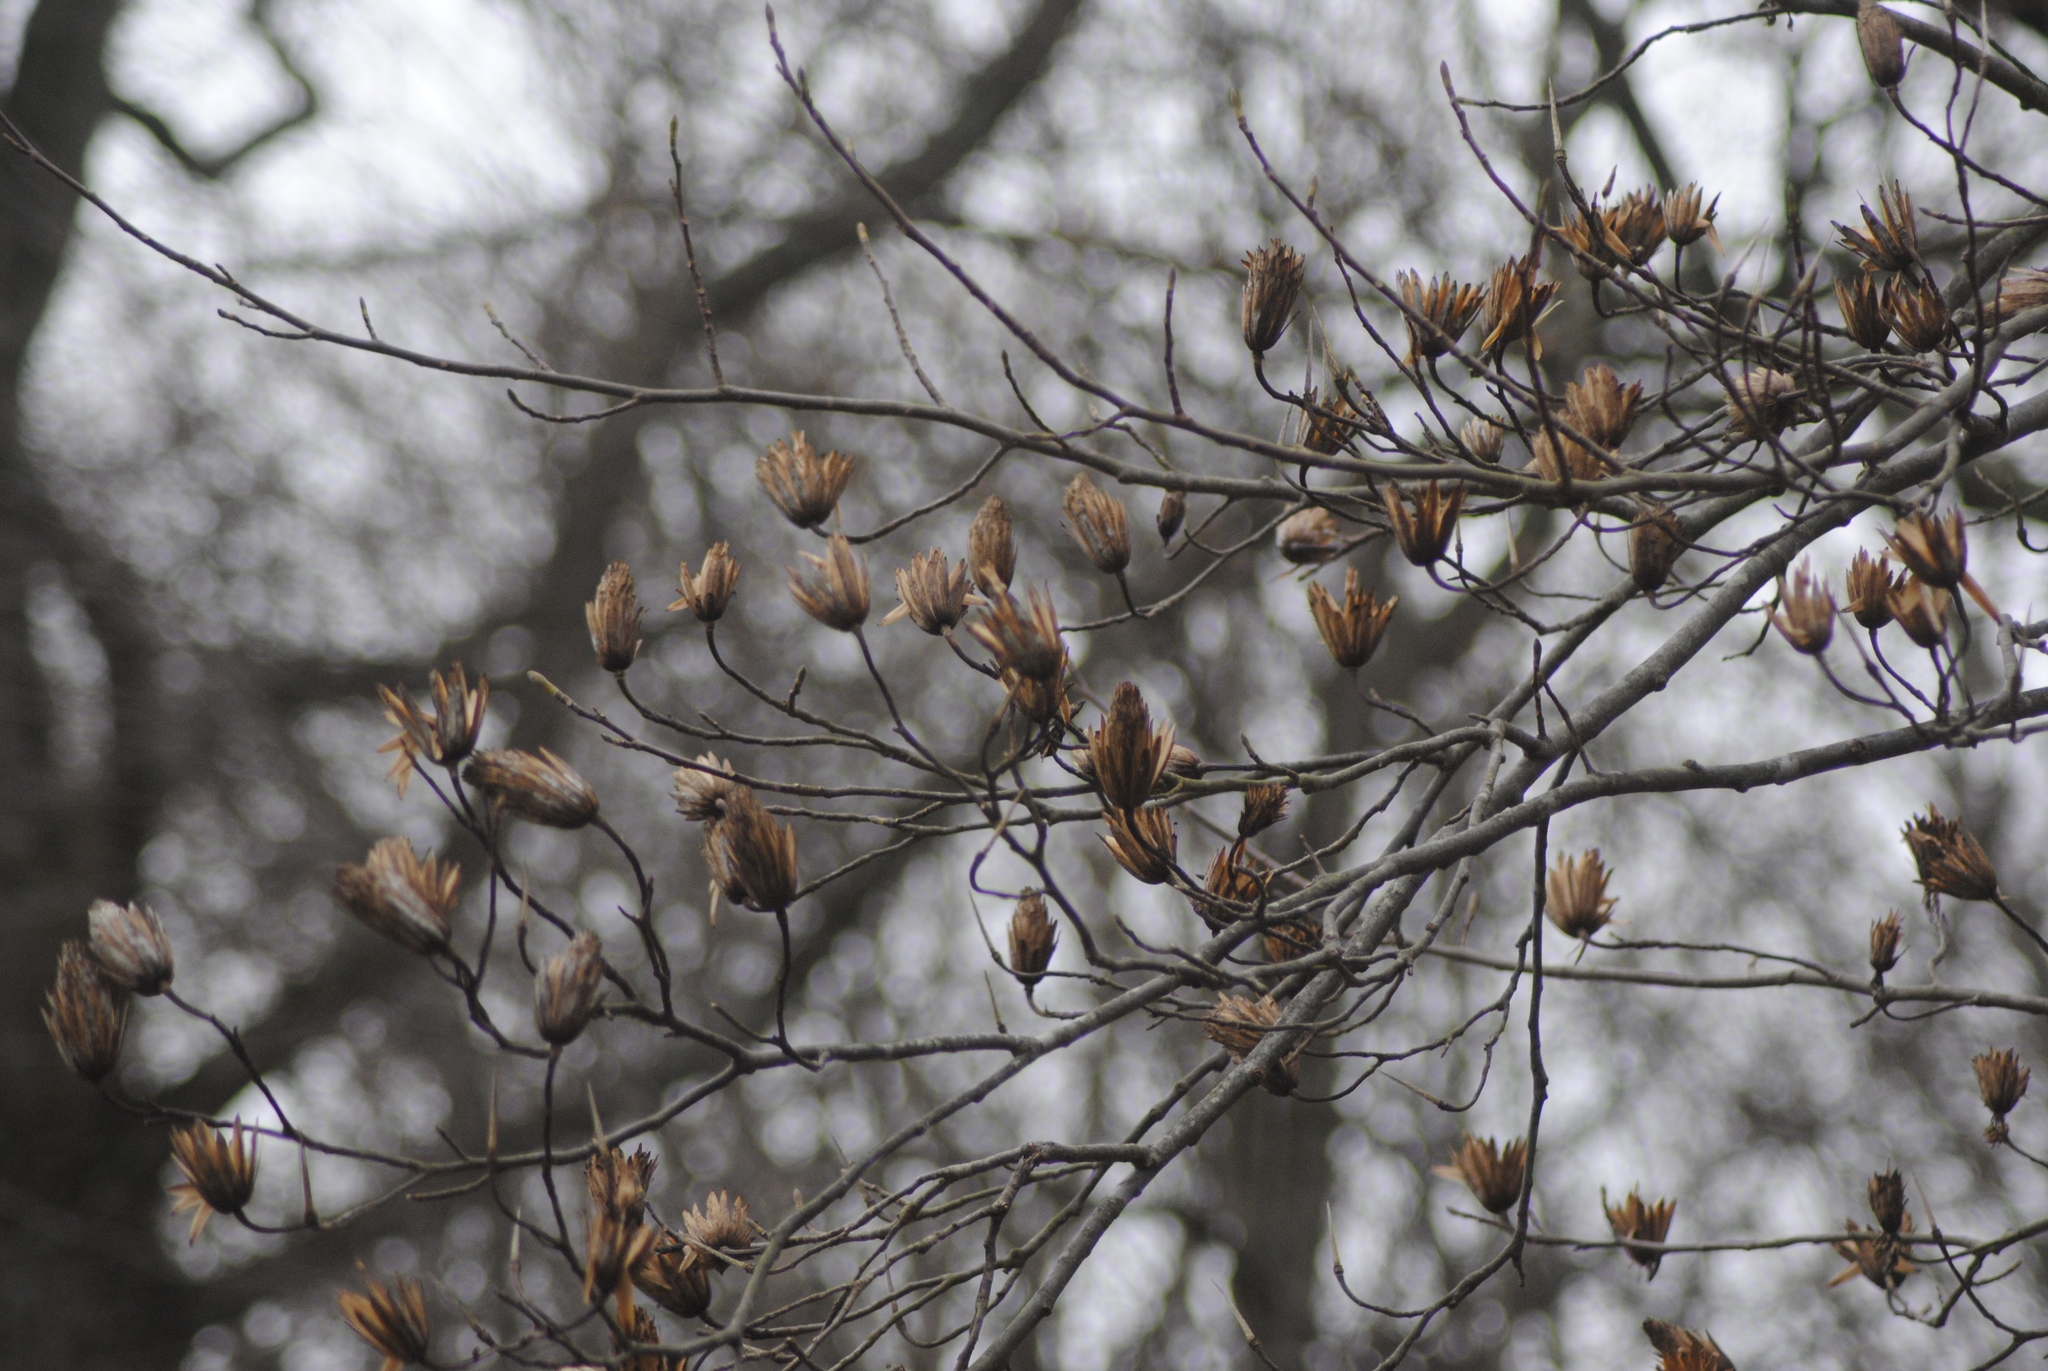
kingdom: Plantae
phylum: Tracheophyta
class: Magnoliopsida
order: Magnoliales
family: Magnoliaceae
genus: Liriodendron
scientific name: Liriodendron tulipifera
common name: Tulip tree
